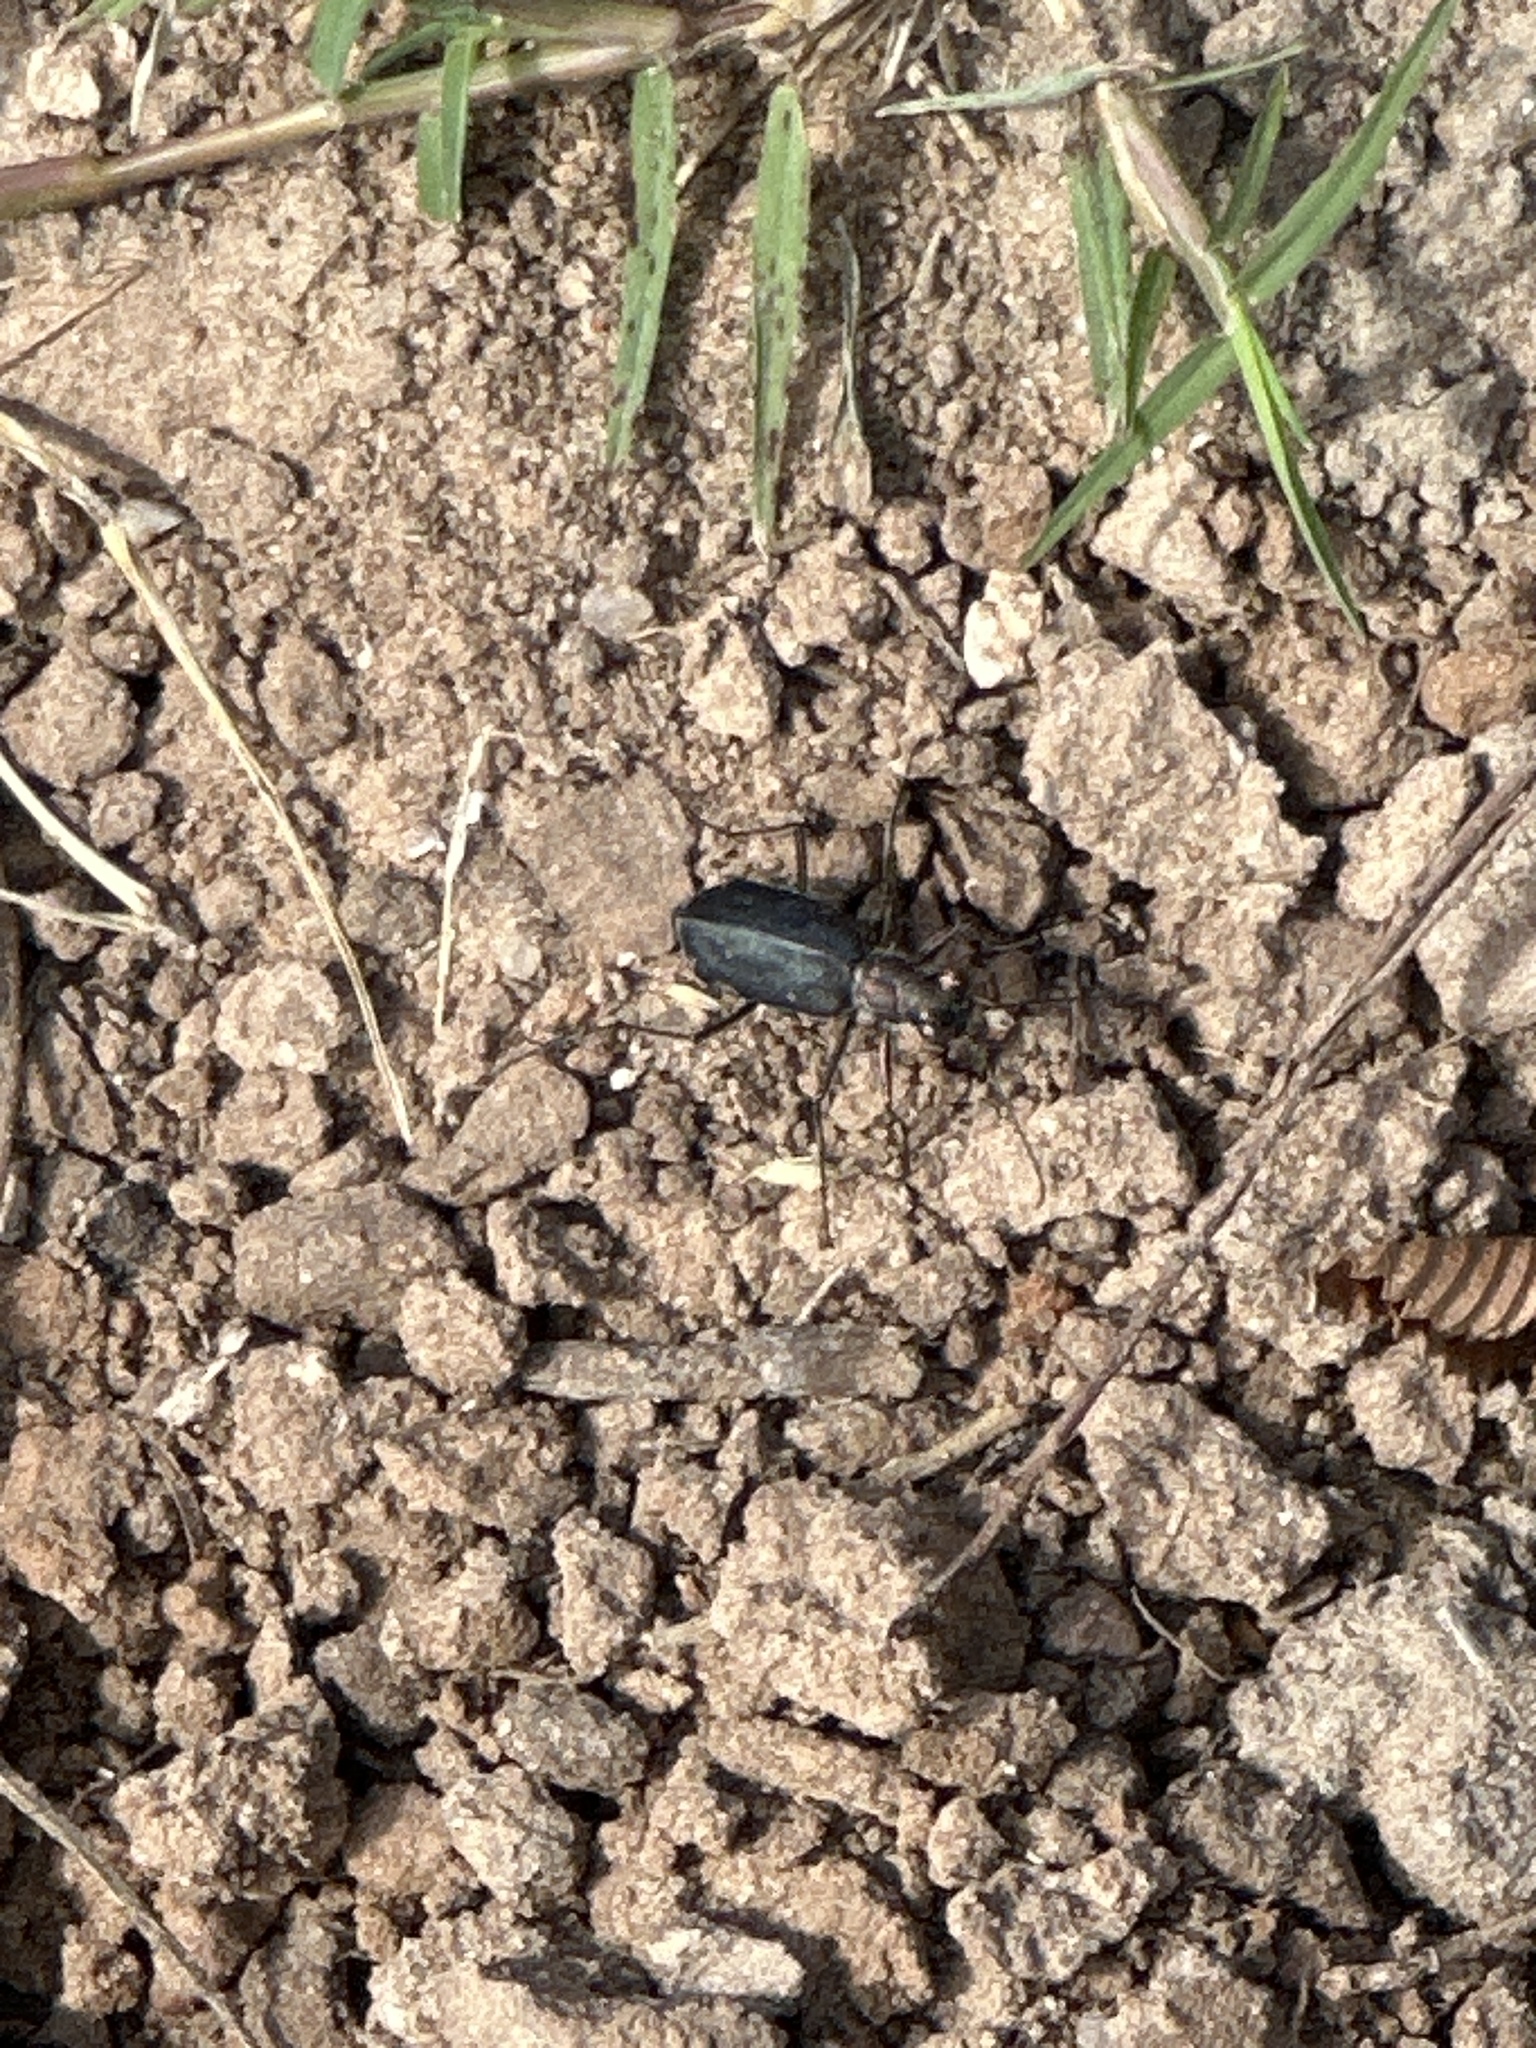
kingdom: Animalia
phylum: Arthropoda
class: Insecta
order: Coleoptera
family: Carabidae
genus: Cicindela
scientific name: Cicindela punctulata
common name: Punctured tiger beetle
